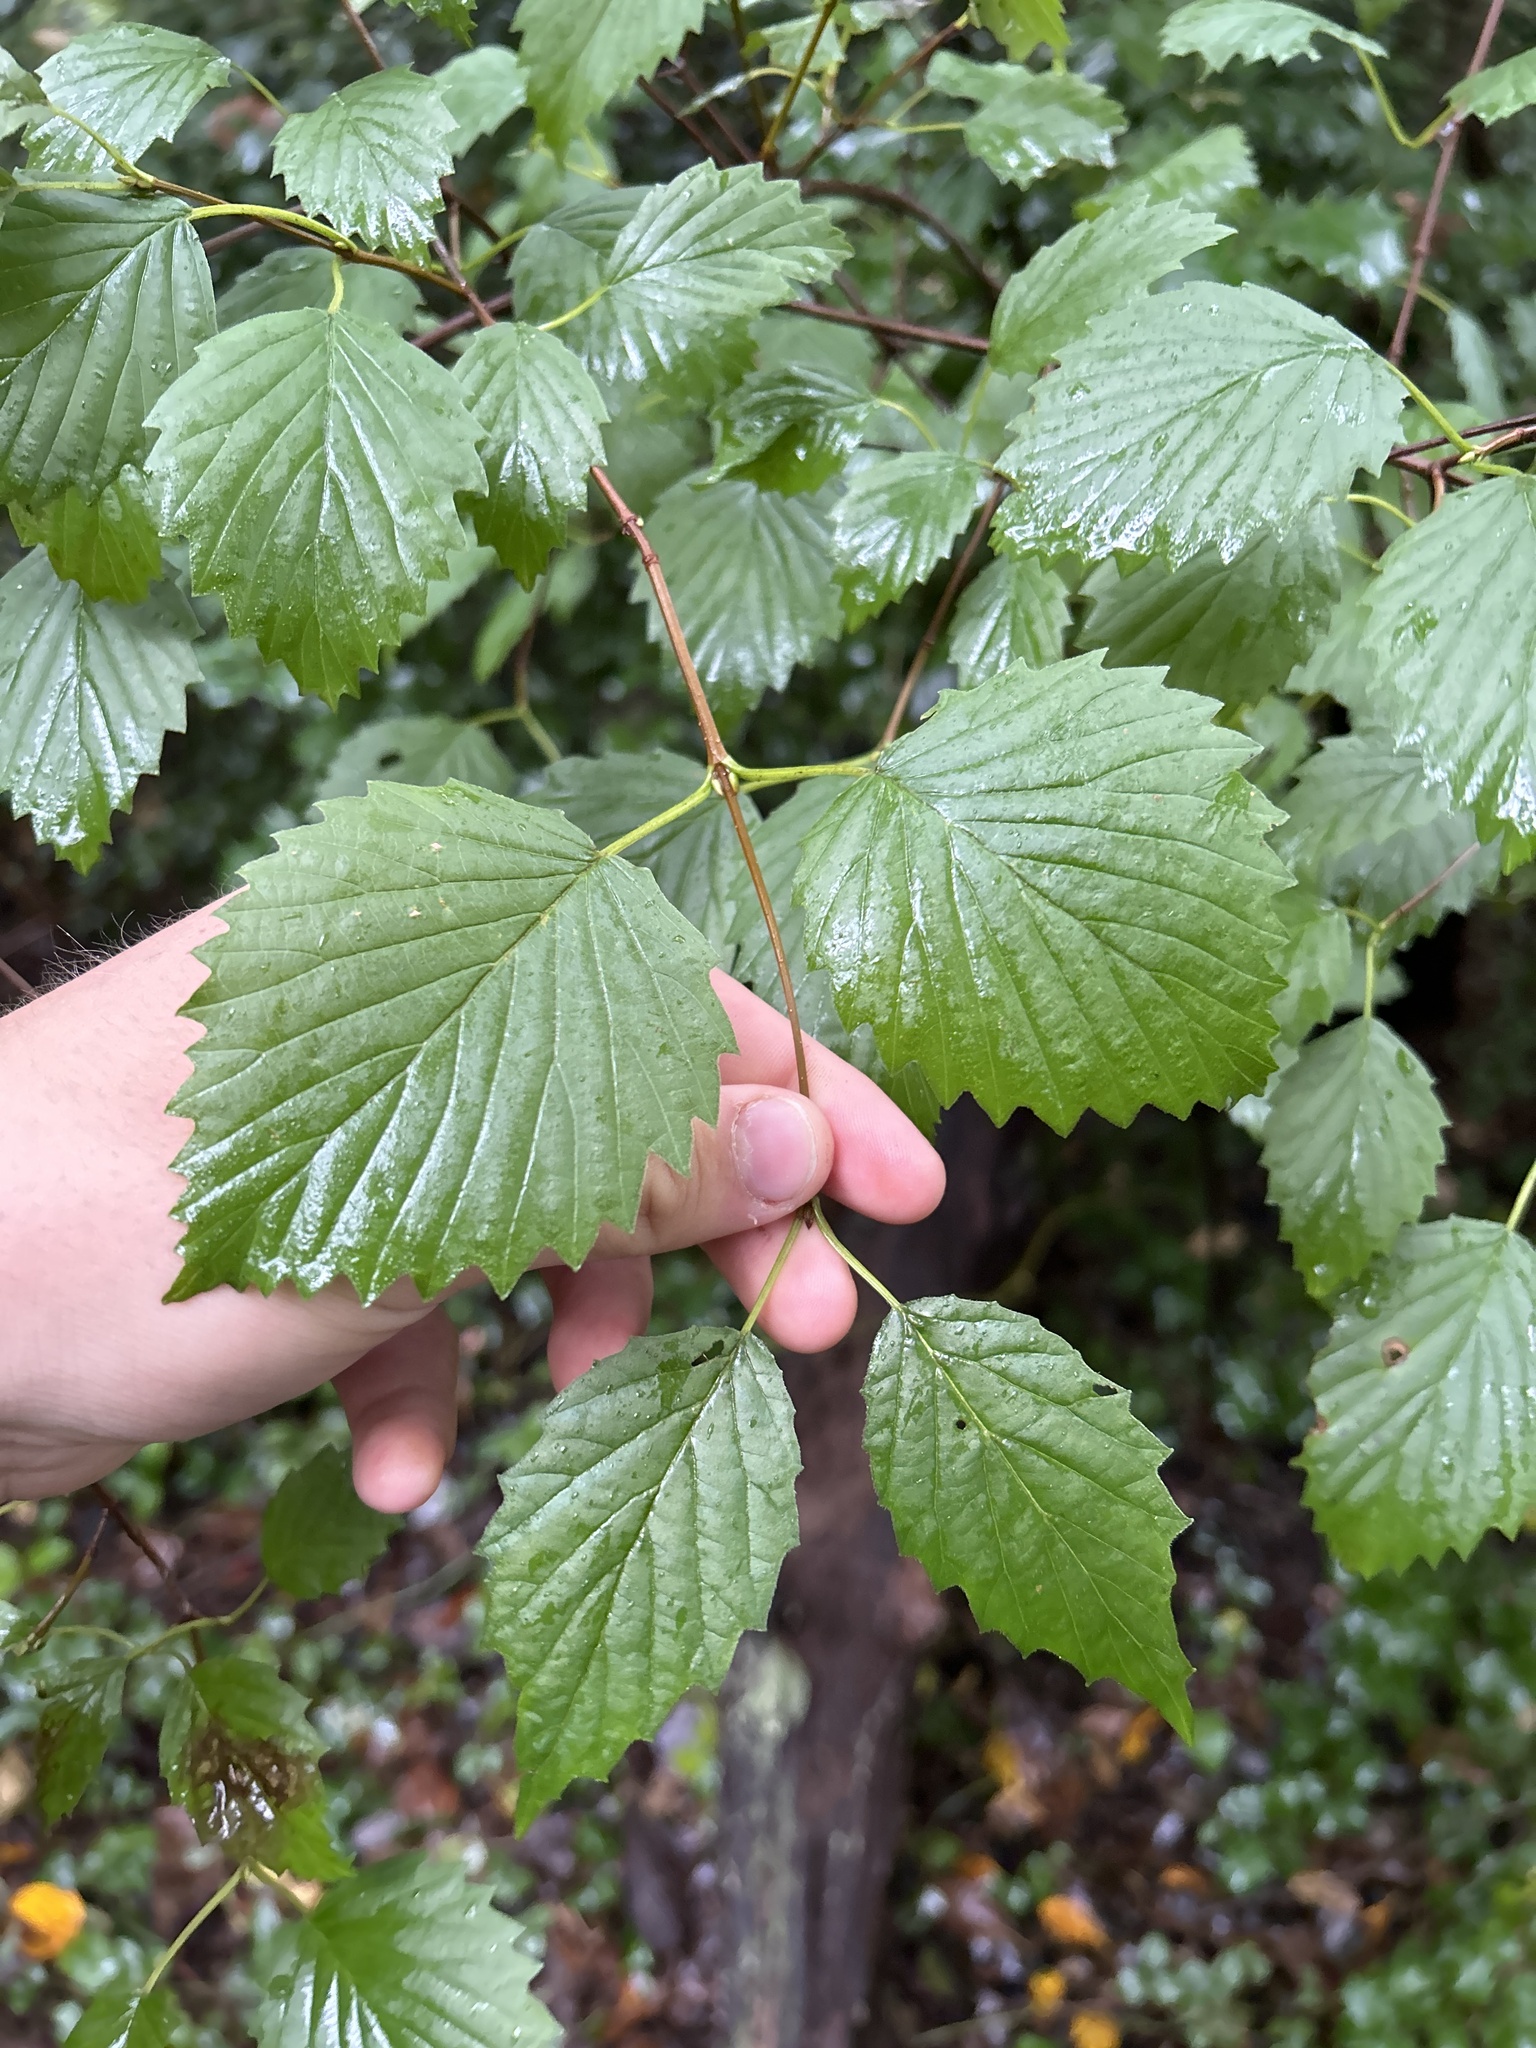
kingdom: Plantae
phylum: Tracheophyta
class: Magnoliopsida
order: Dipsacales
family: Viburnaceae
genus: Viburnum
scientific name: Viburnum dentatum
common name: Arrow-wood
